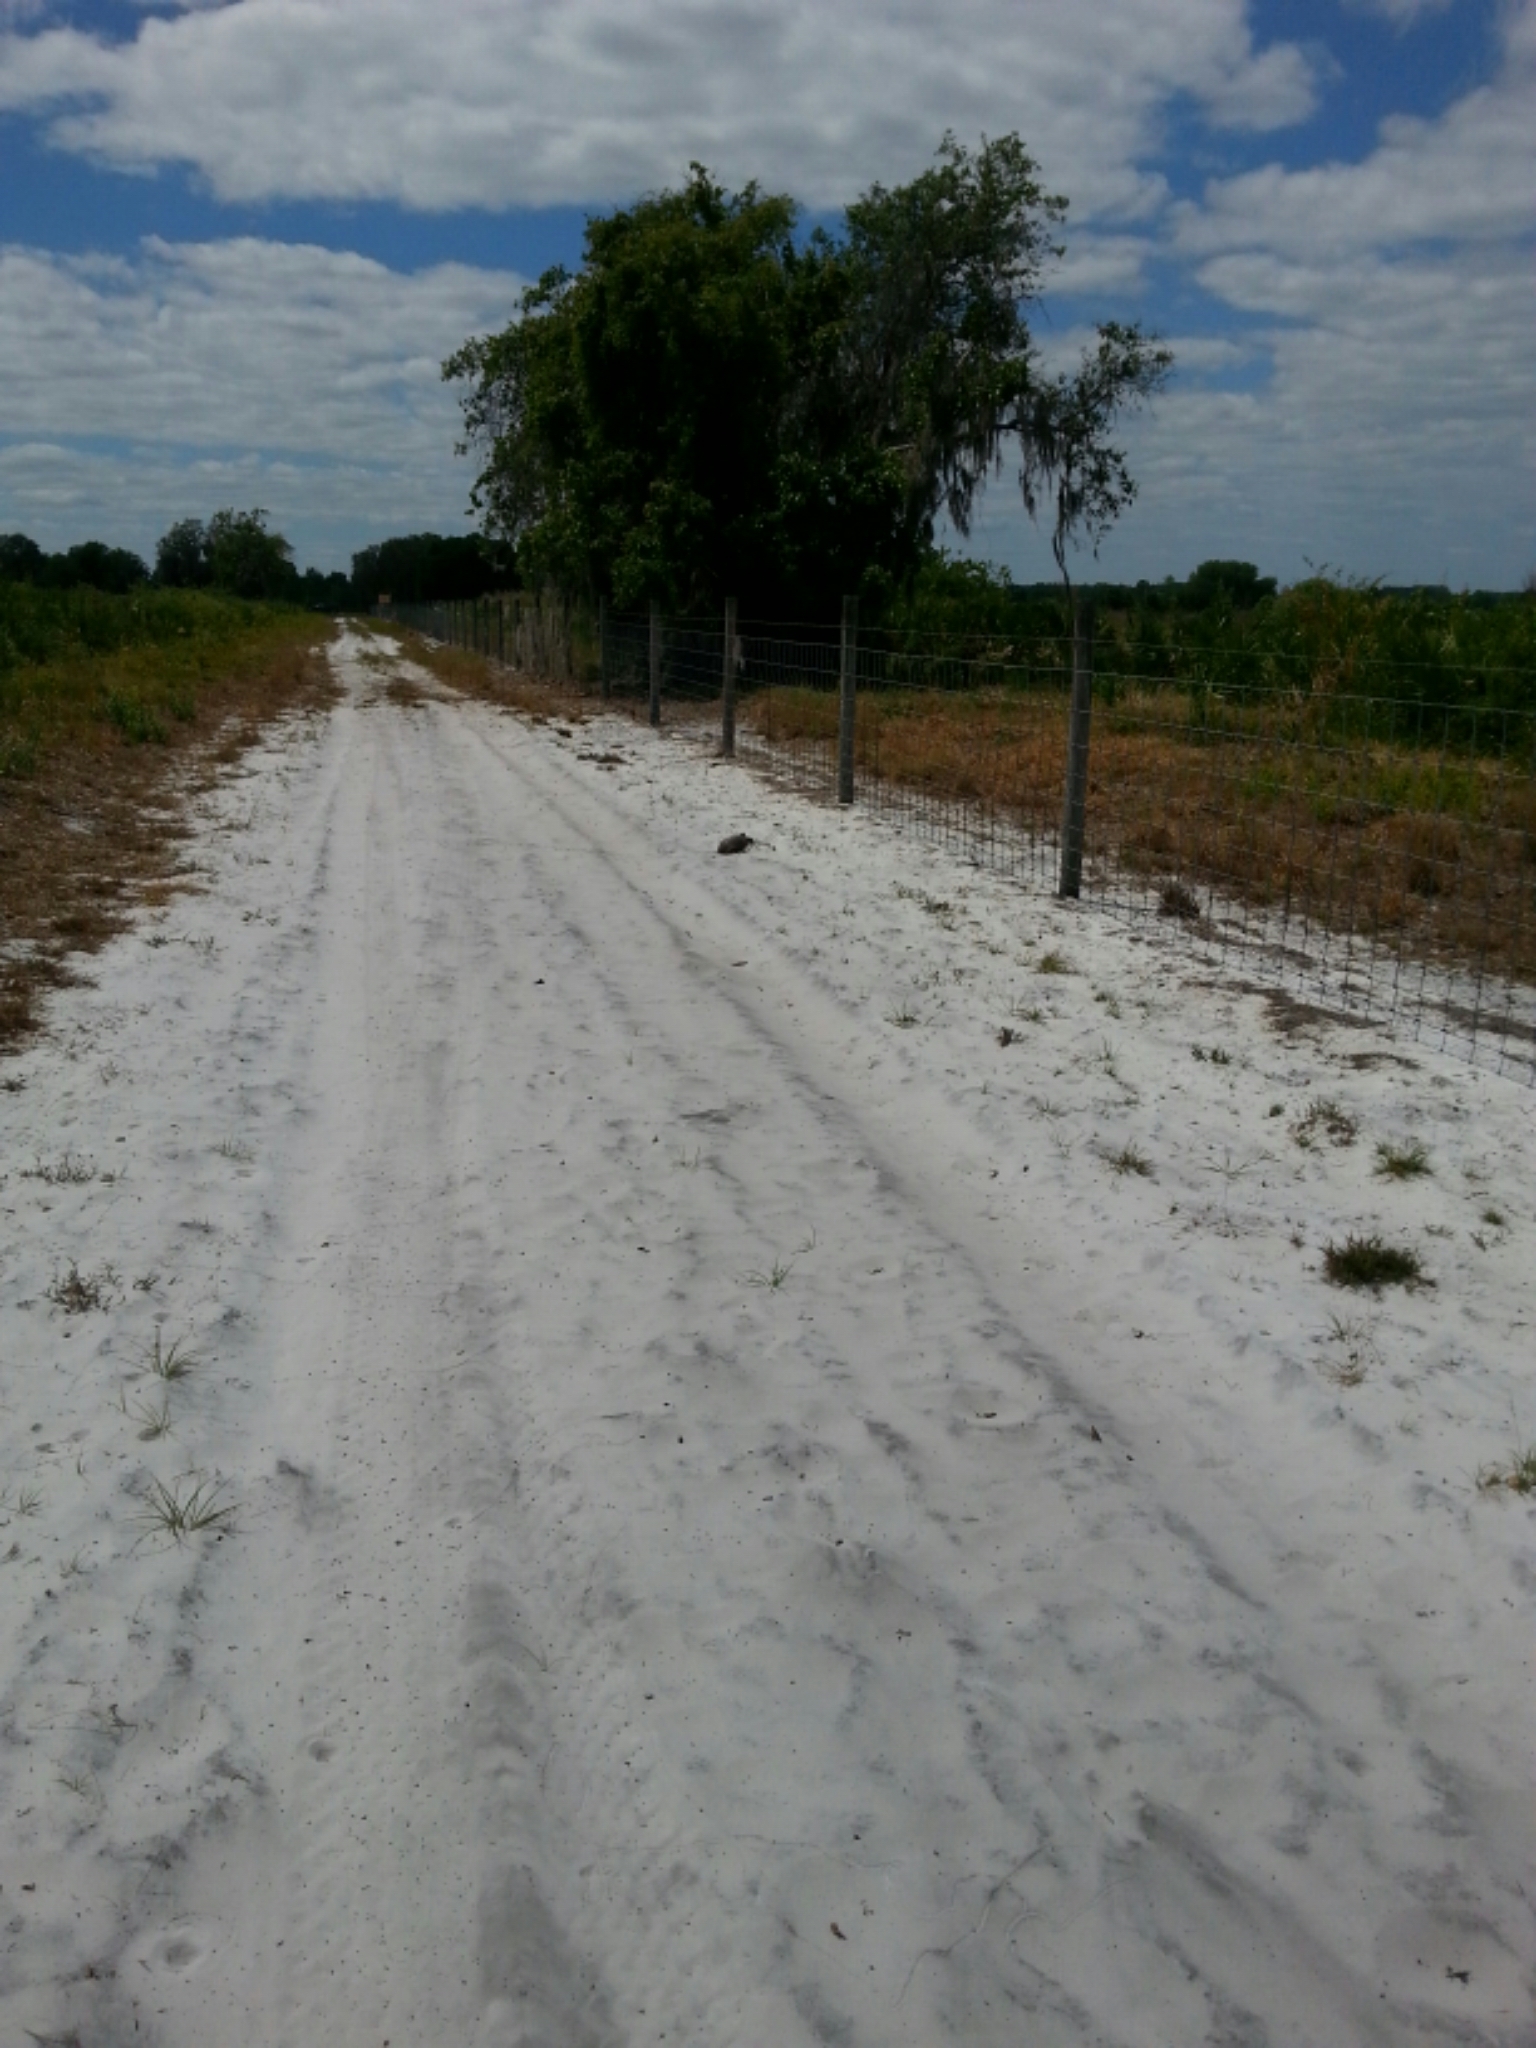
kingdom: Animalia
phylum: Chordata
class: Testudines
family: Testudinidae
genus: Gopherus
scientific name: Gopherus polyphemus
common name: Florida gopher tortoise
